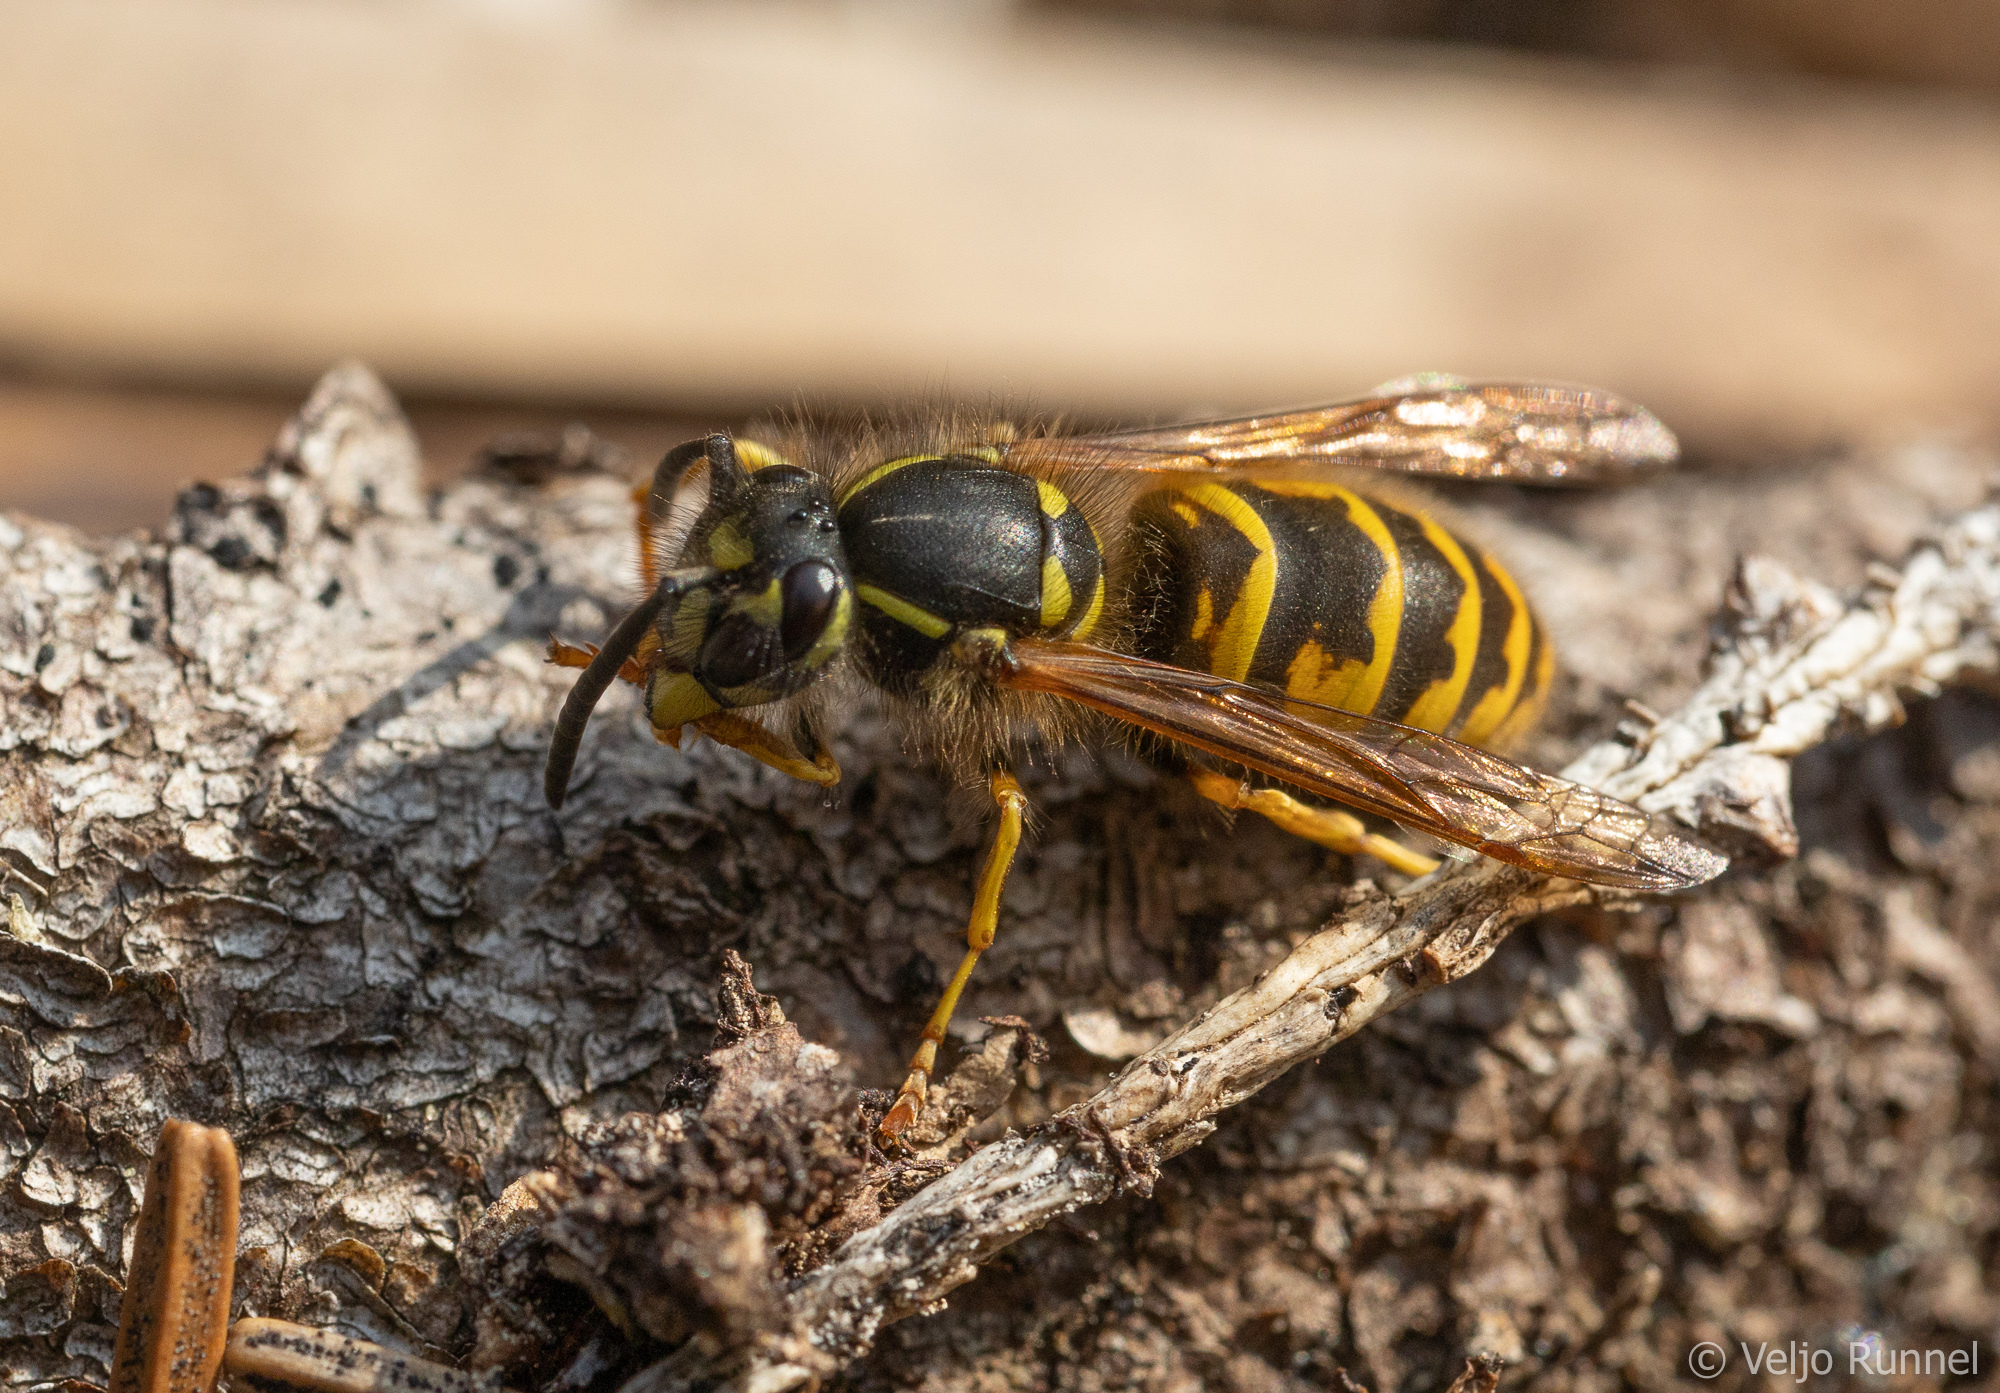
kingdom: Animalia
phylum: Arthropoda
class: Insecta
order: Hymenoptera
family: Vespidae
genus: Vespula
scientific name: Vespula vulgaris
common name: Common wasp
